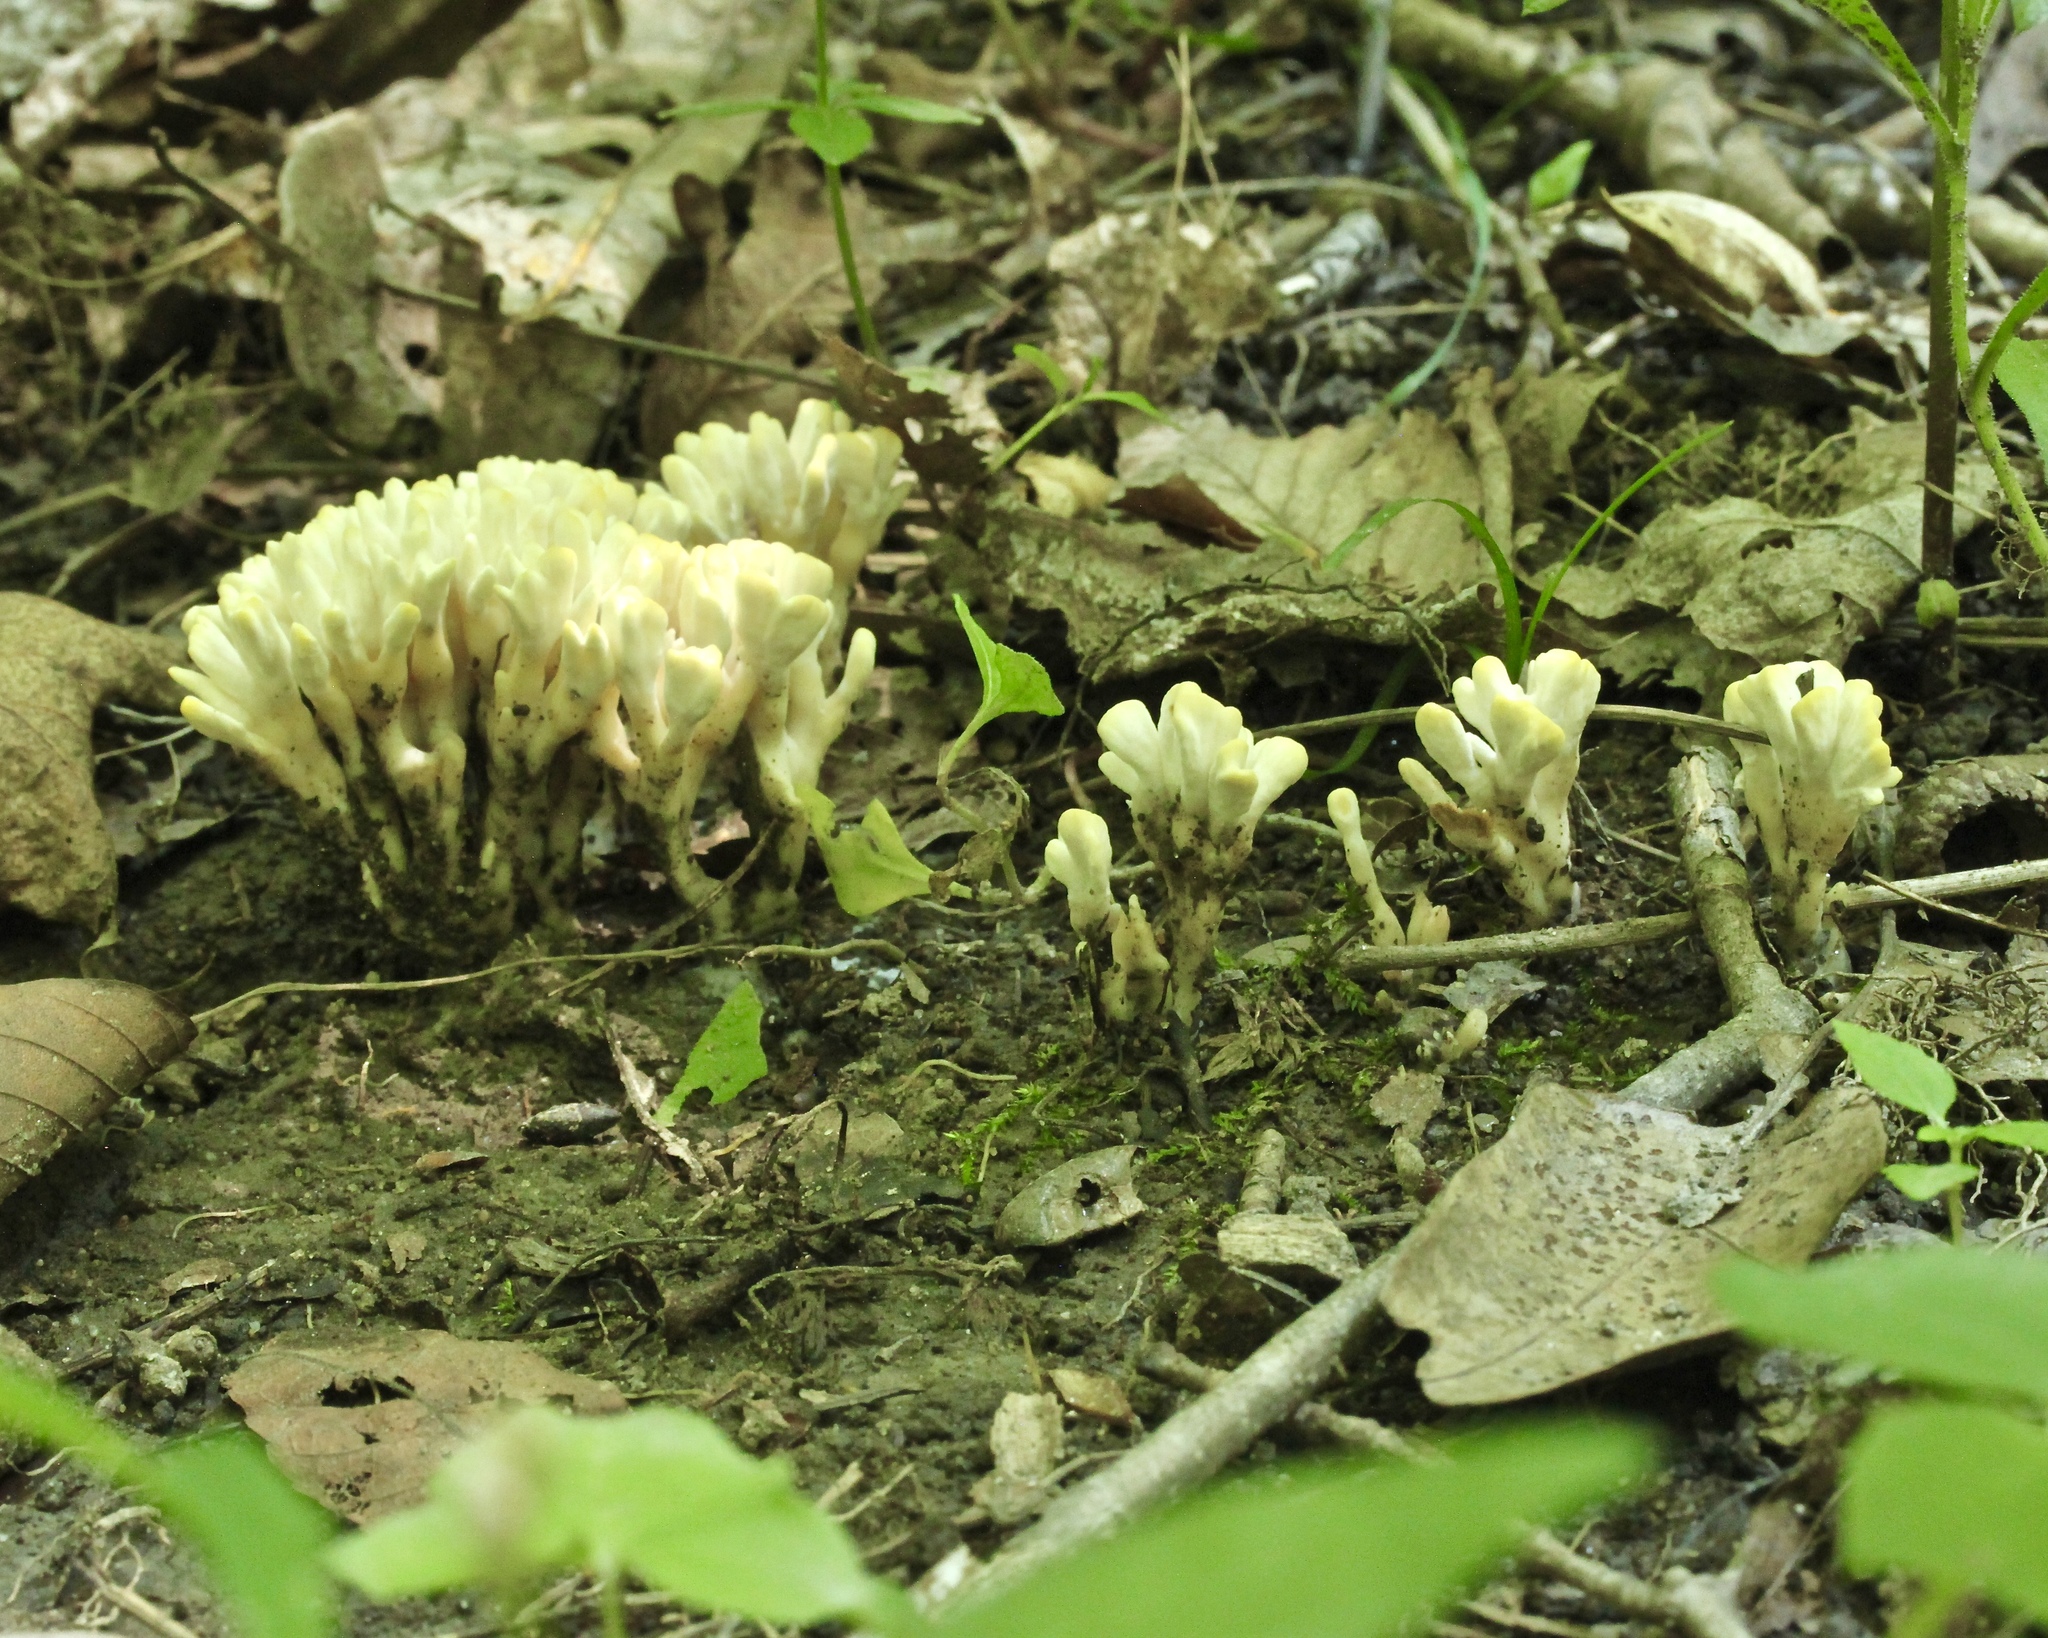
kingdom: Fungi
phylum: Basidiomycota
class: Agaricomycetes
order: Sebacinales
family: Sebacinaceae
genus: Sebacina
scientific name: Sebacina schweinitzii
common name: Jellied false coral fungus
